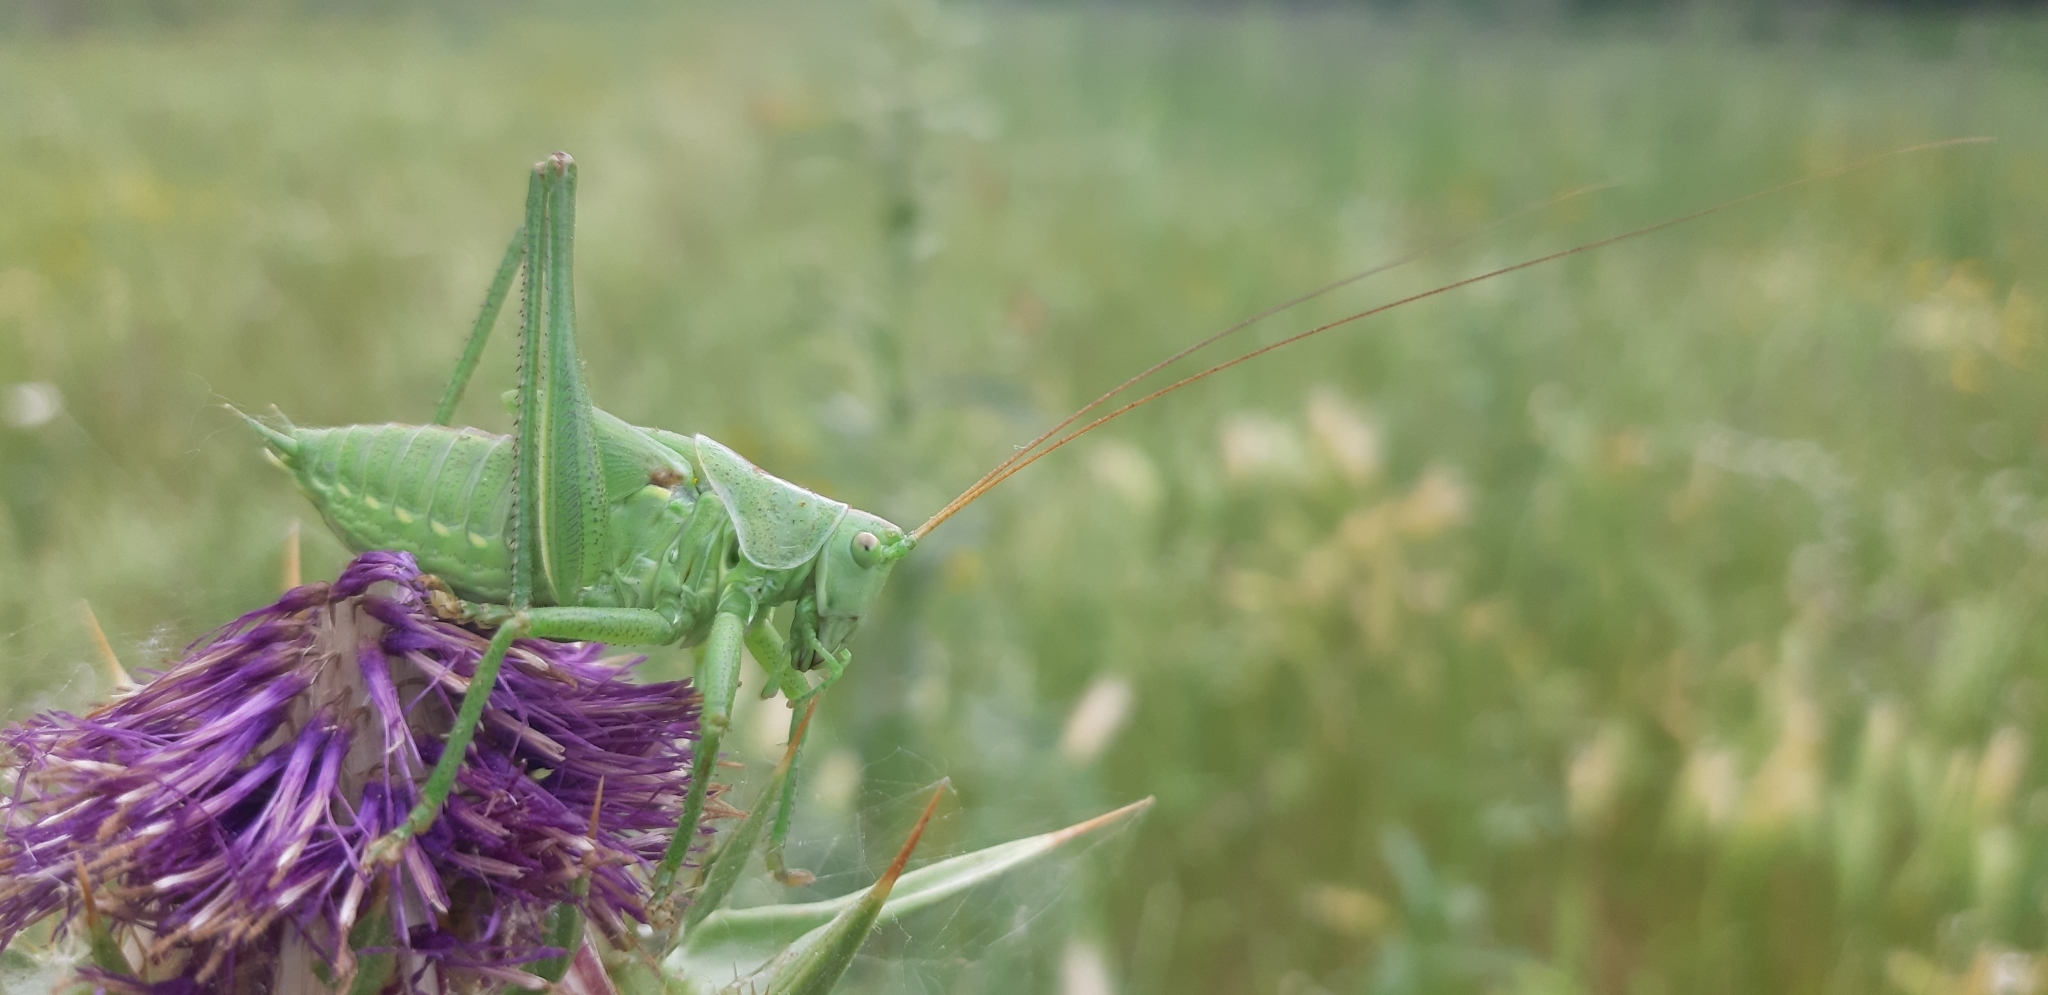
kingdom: Animalia
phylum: Arthropoda
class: Insecta
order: Orthoptera
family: Tettigoniidae
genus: Tettigonia
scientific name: Tettigonia viridissima
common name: Great green bush-cricket
